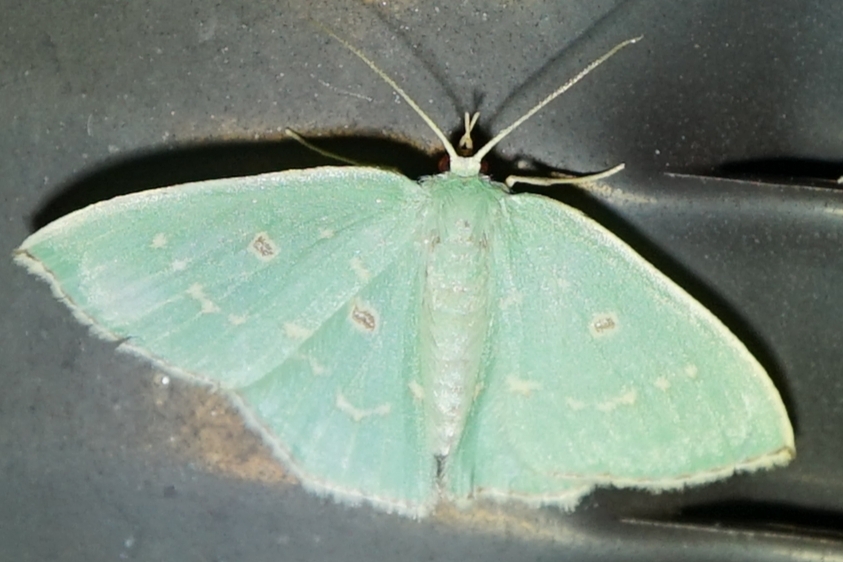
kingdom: Animalia
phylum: Arthropoda
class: Insecta
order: Lepidoptera
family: Geometridae
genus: Comostola
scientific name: Comostola subtiliaria
